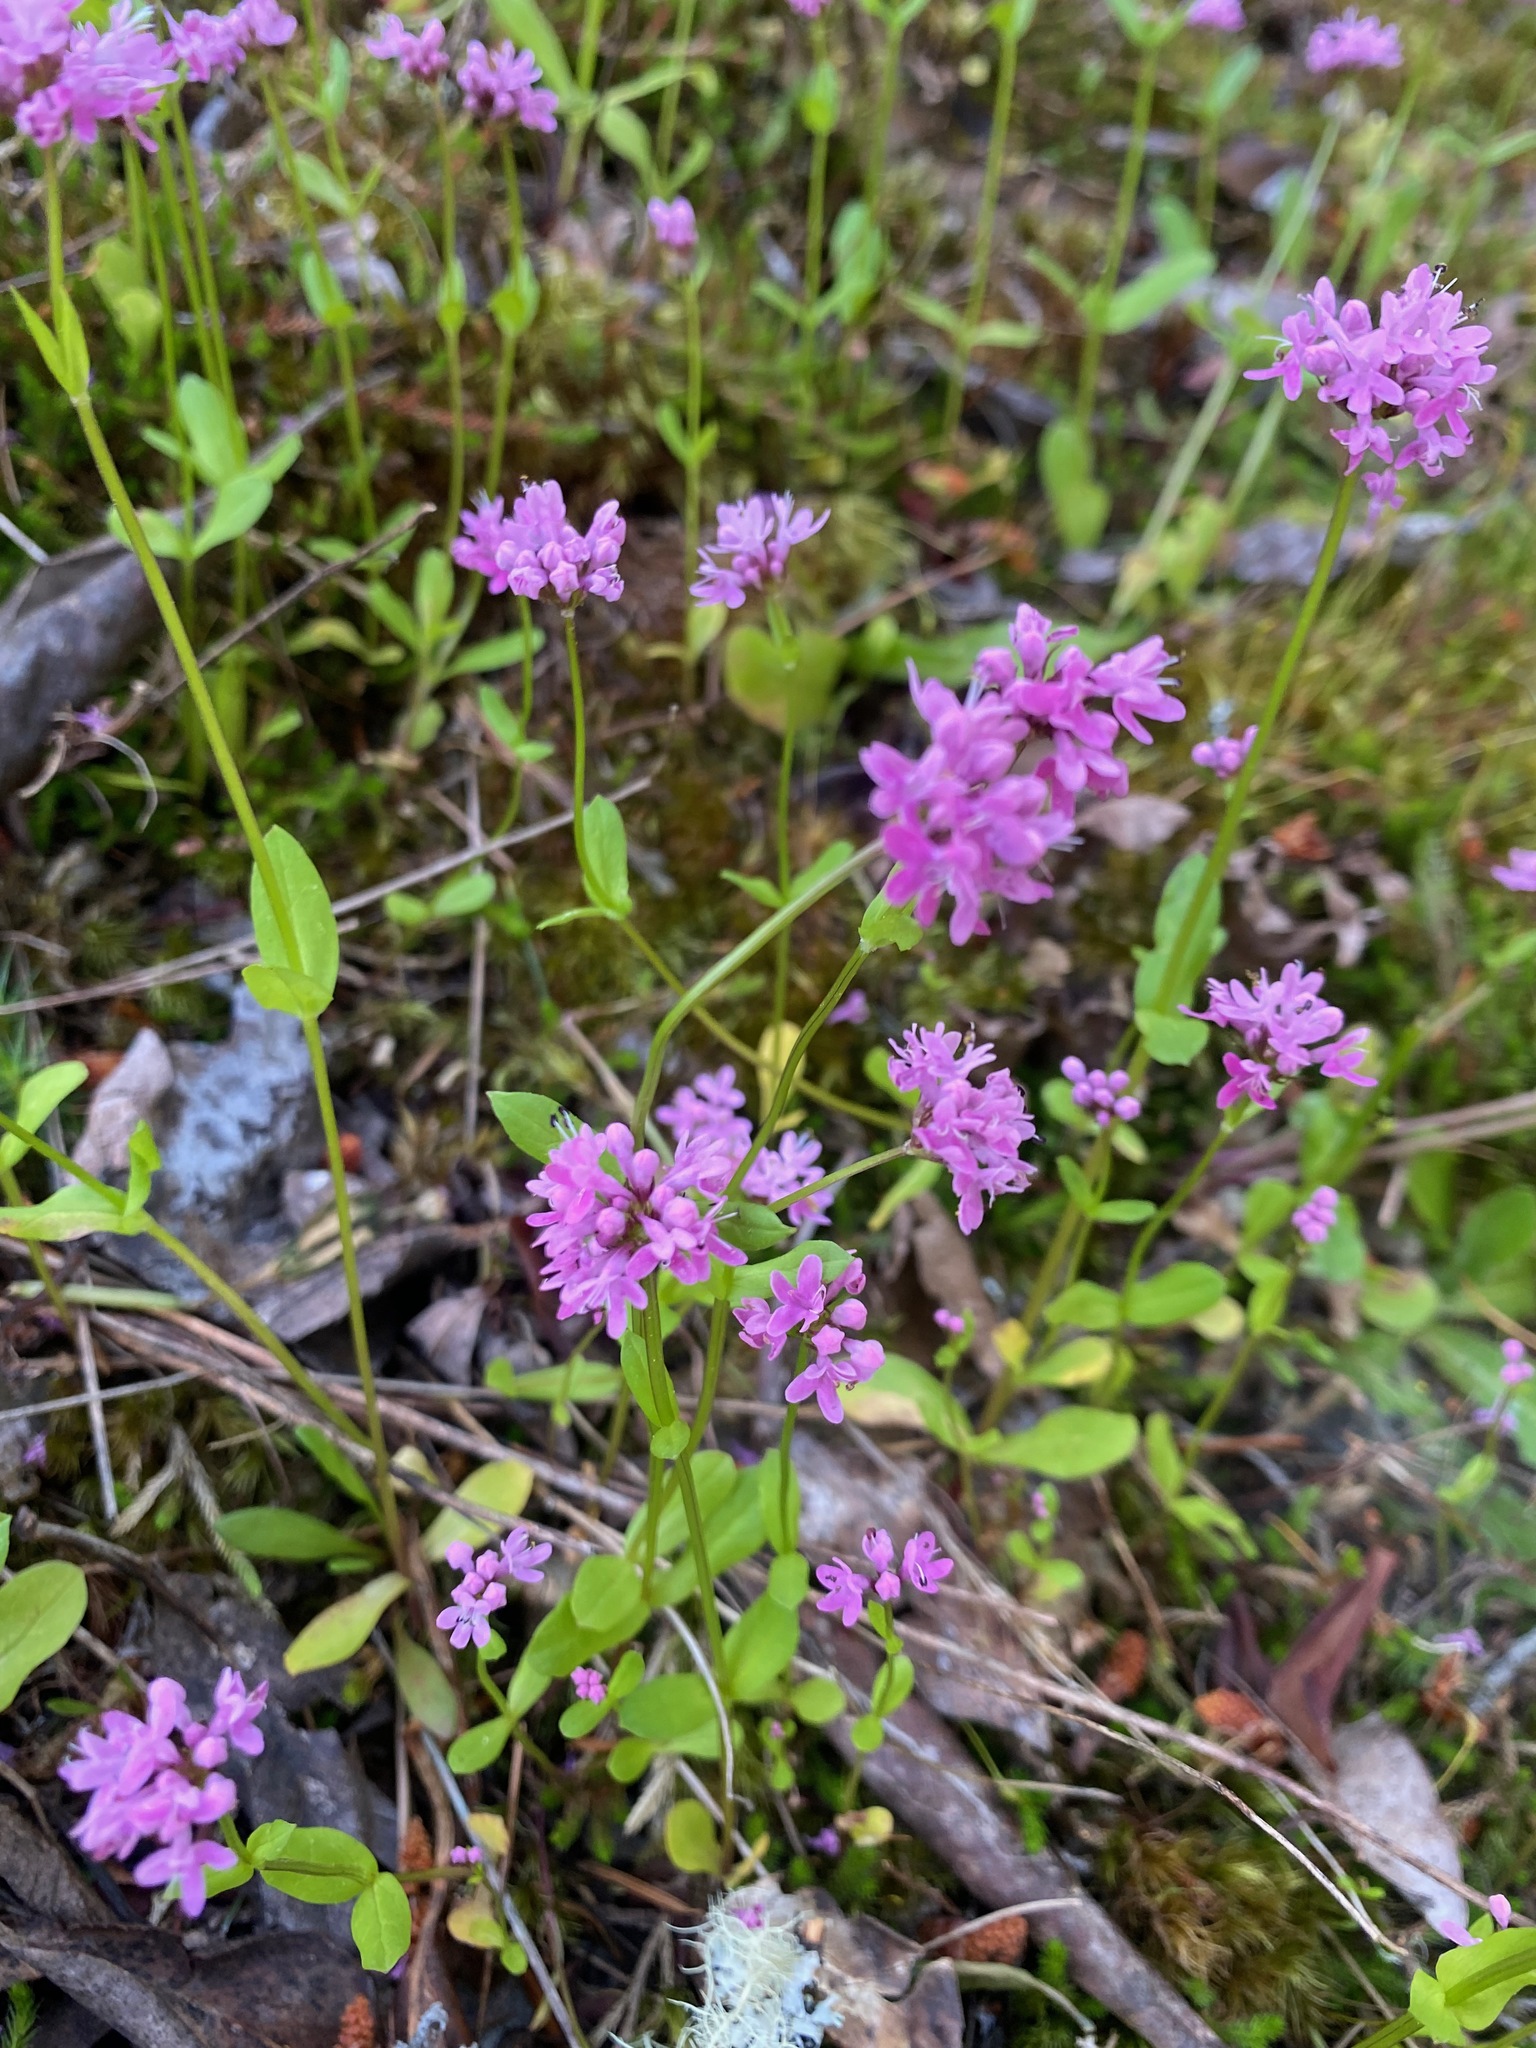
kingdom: Plantae
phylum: Tracheophyta
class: Magnoliopsida
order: Dipsacales
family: Caprifoliaceae
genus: Plectritis
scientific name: Plectritis congesta
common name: Pink plectritis
